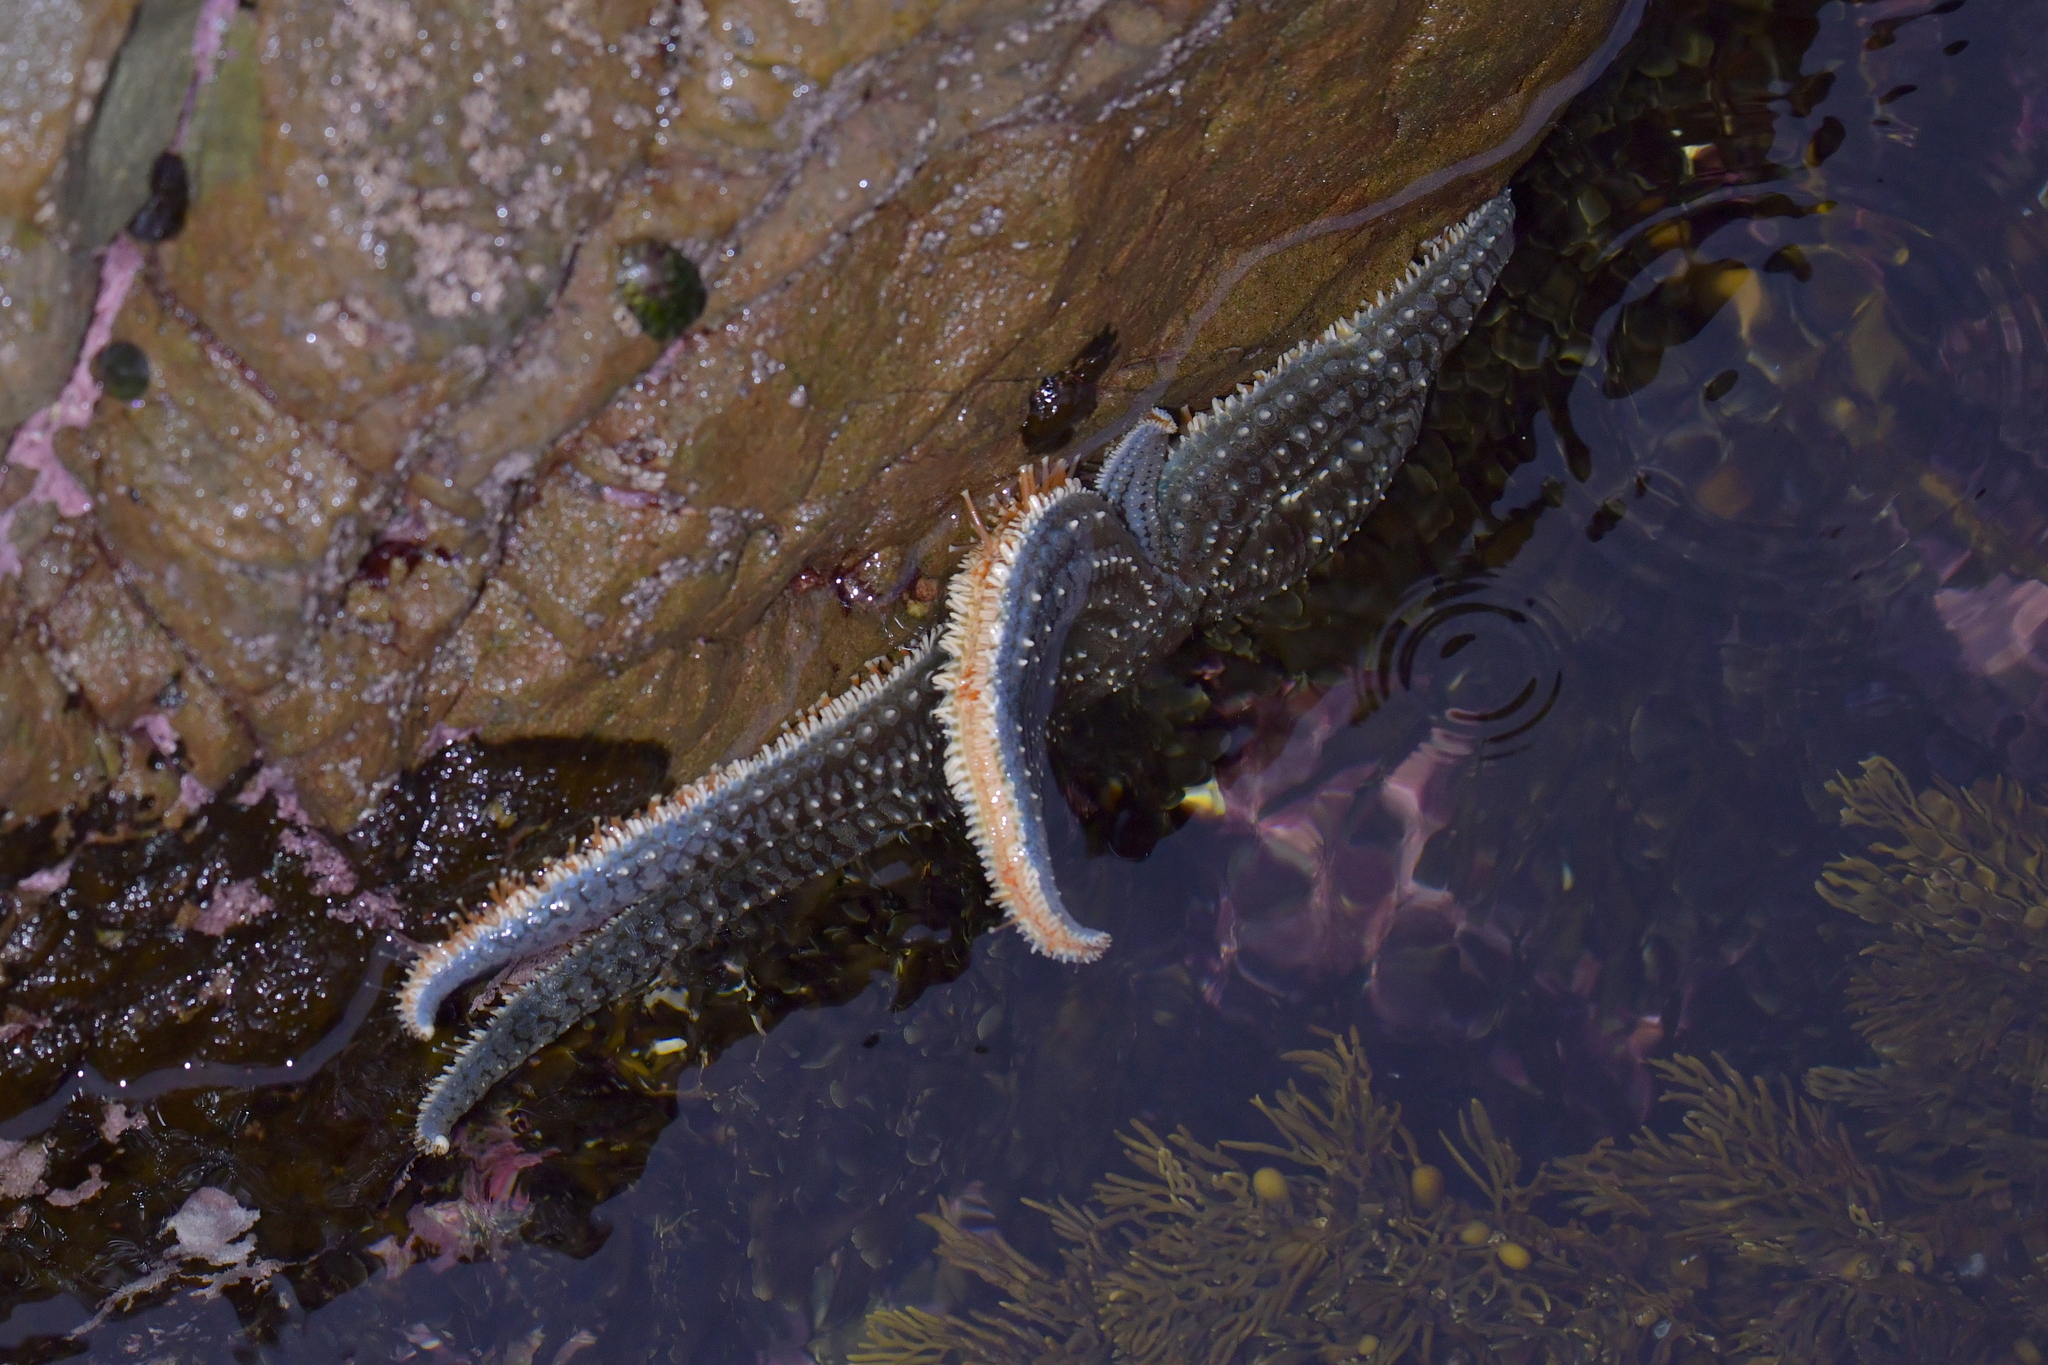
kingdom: Animalia
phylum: Echinodermata
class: Asteroidea
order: Forcipulatida
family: Asteriidae
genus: Astrostole
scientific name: Astrostole scabra
